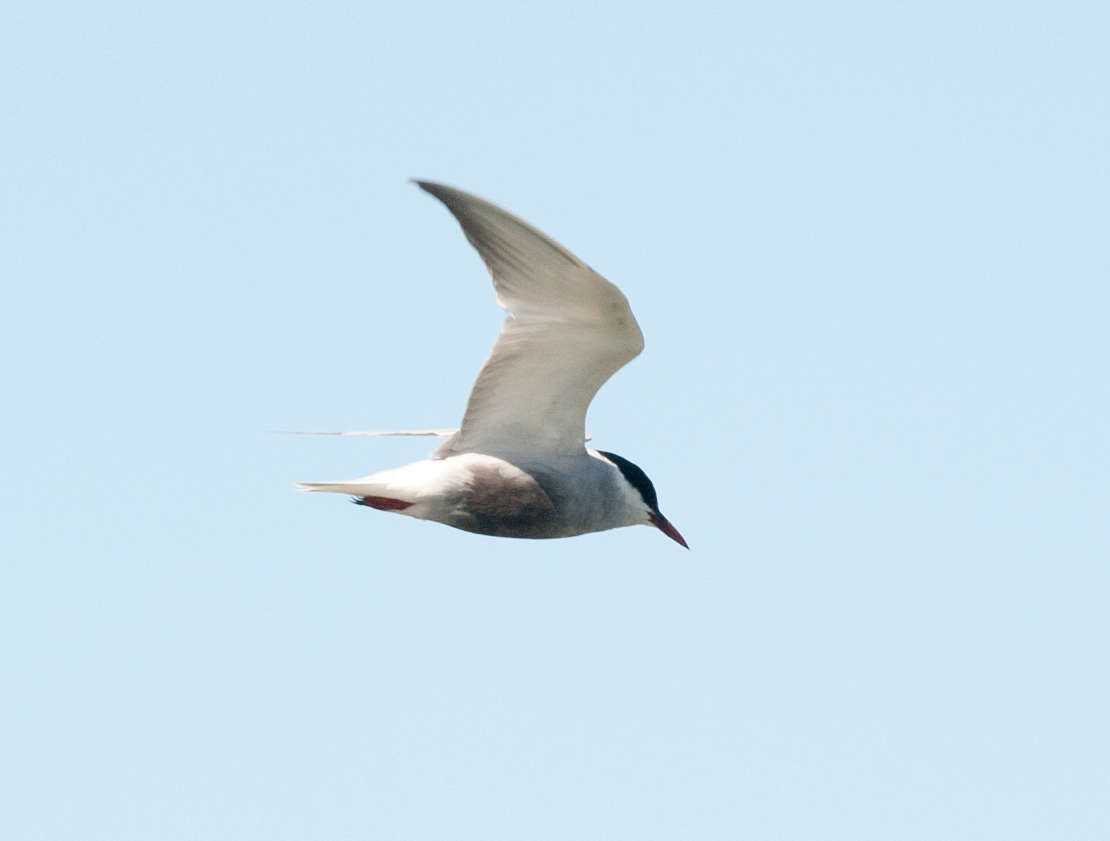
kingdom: Animalia
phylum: Chordata
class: Aves
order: Charadriiformes
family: Laridae
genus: Chlidonias
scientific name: Chlidonias hybrida
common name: Whiskered tern
